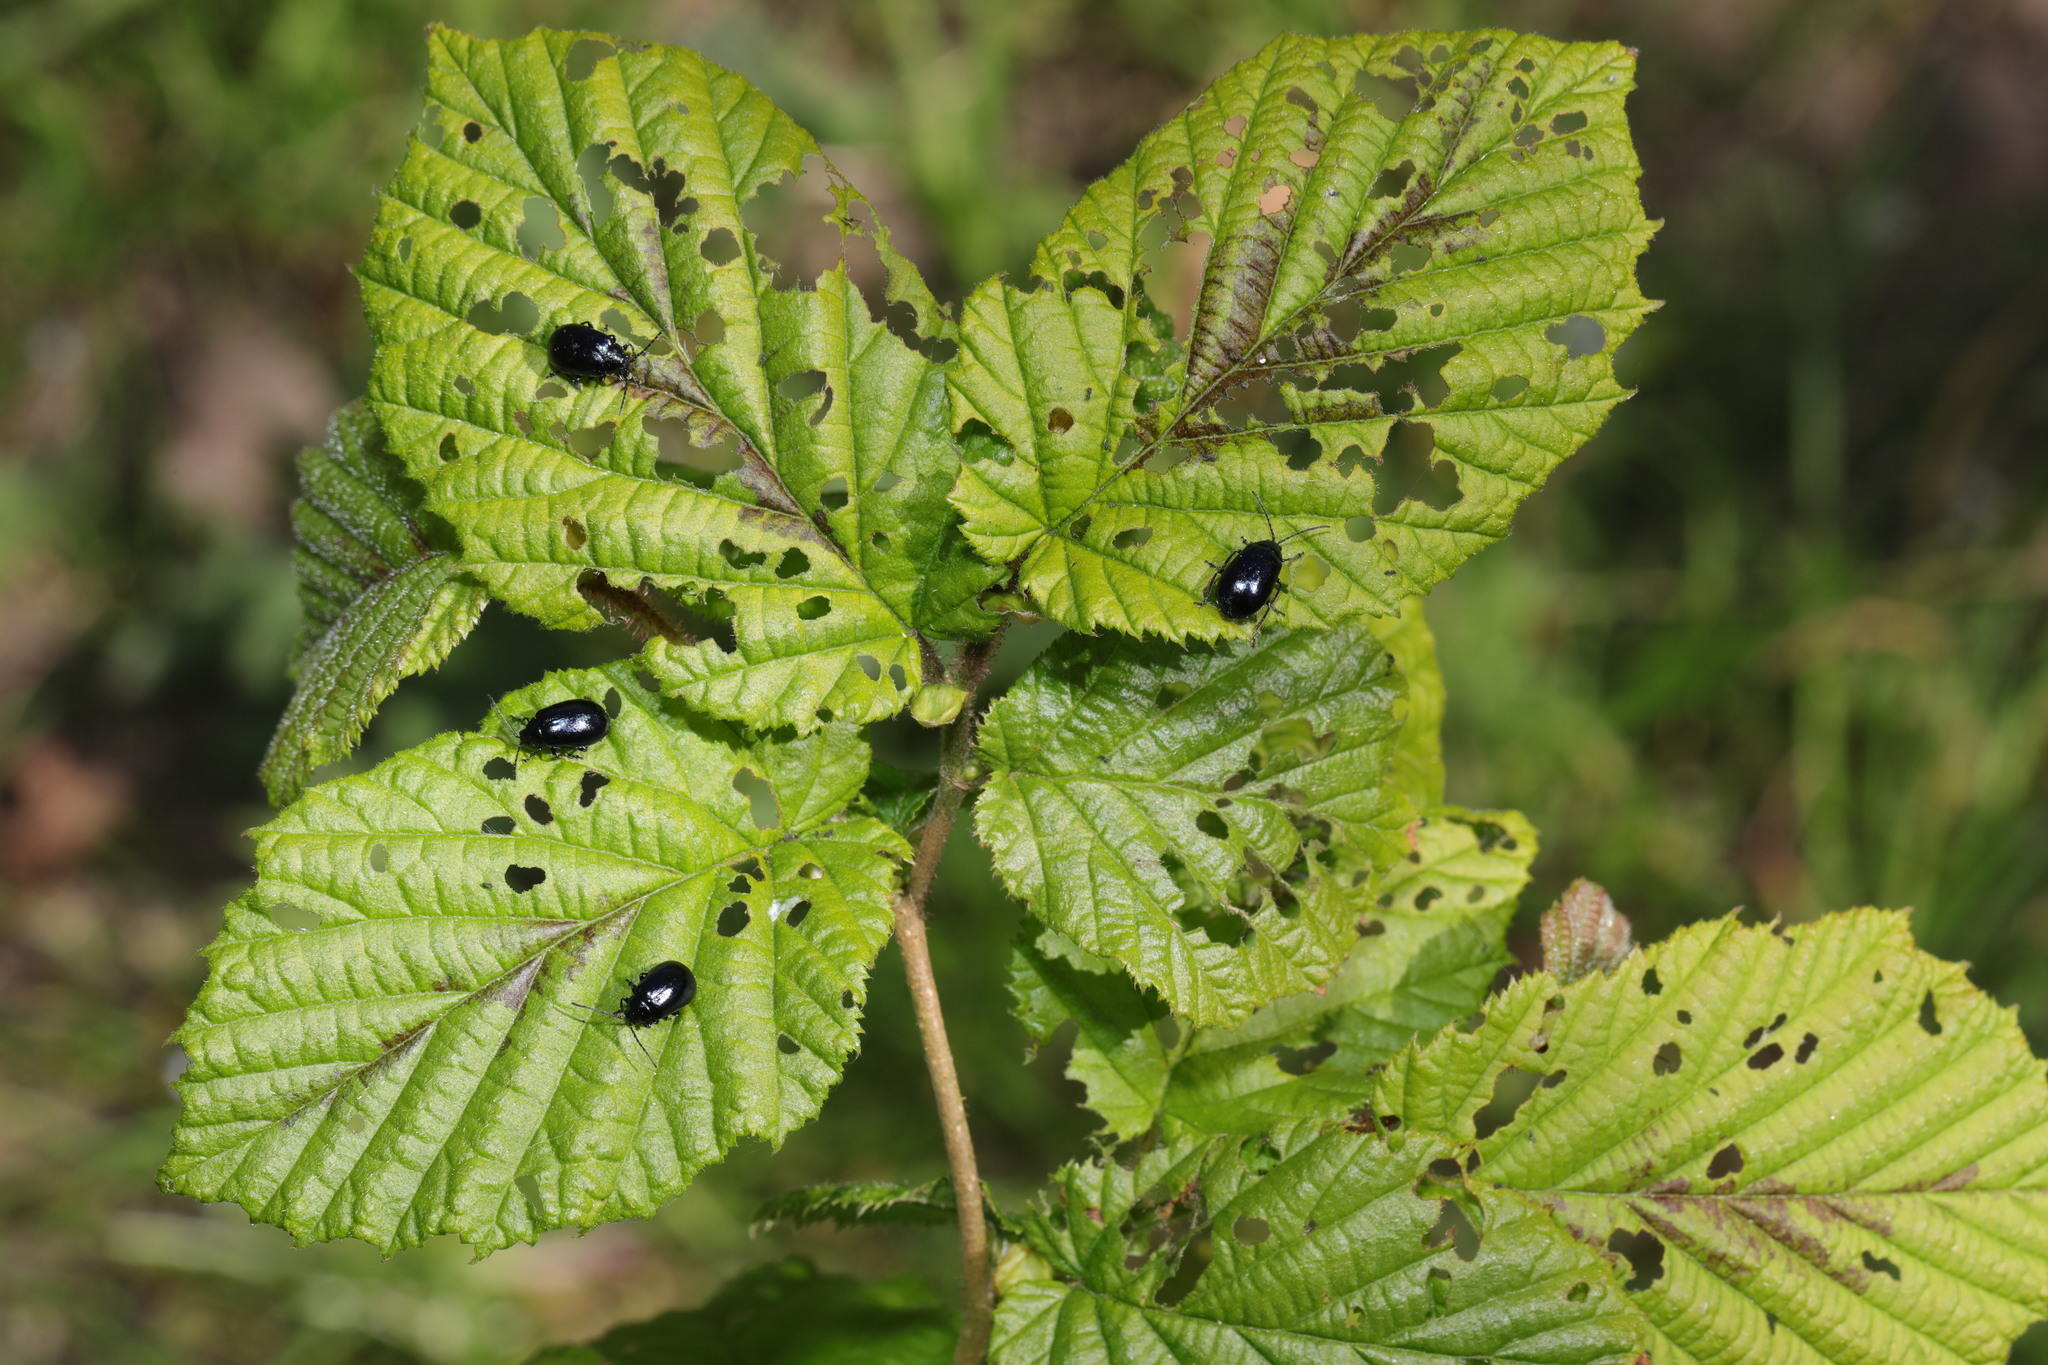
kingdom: Animalia
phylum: Arthropoda
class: Insecta
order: Coleoptera
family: Chrysomelidae
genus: Agelastica
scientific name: Agelastica alni
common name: Alder leaf beetle
